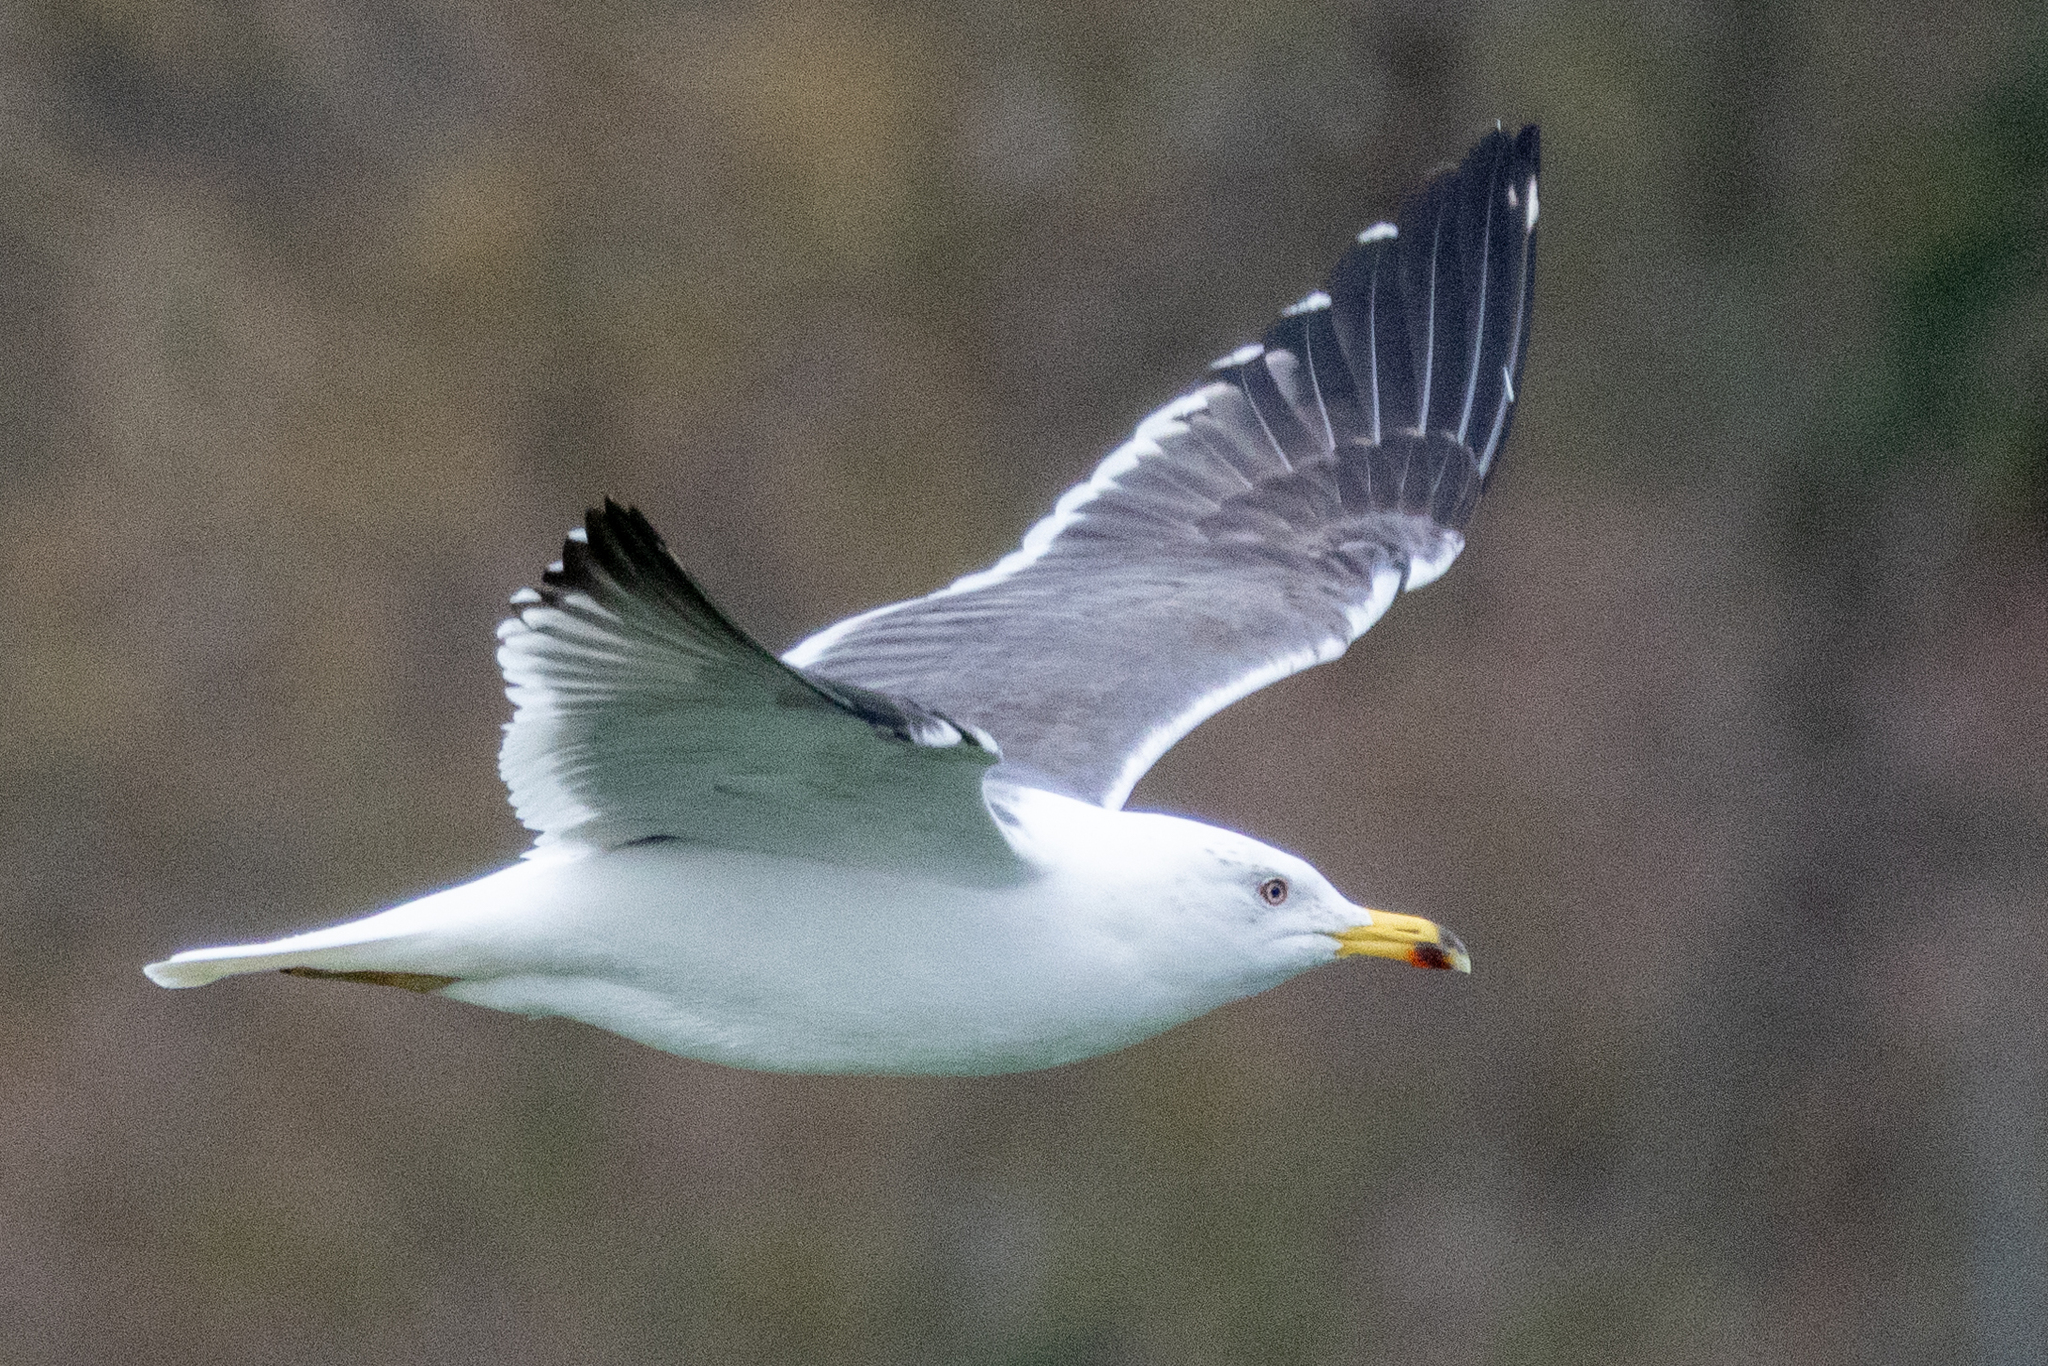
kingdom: Animalia
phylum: Chordata
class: Aves
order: Charadriiformes
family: Laridae
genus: Larus
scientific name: Larus fuscus
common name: Lesser black-backed gull
